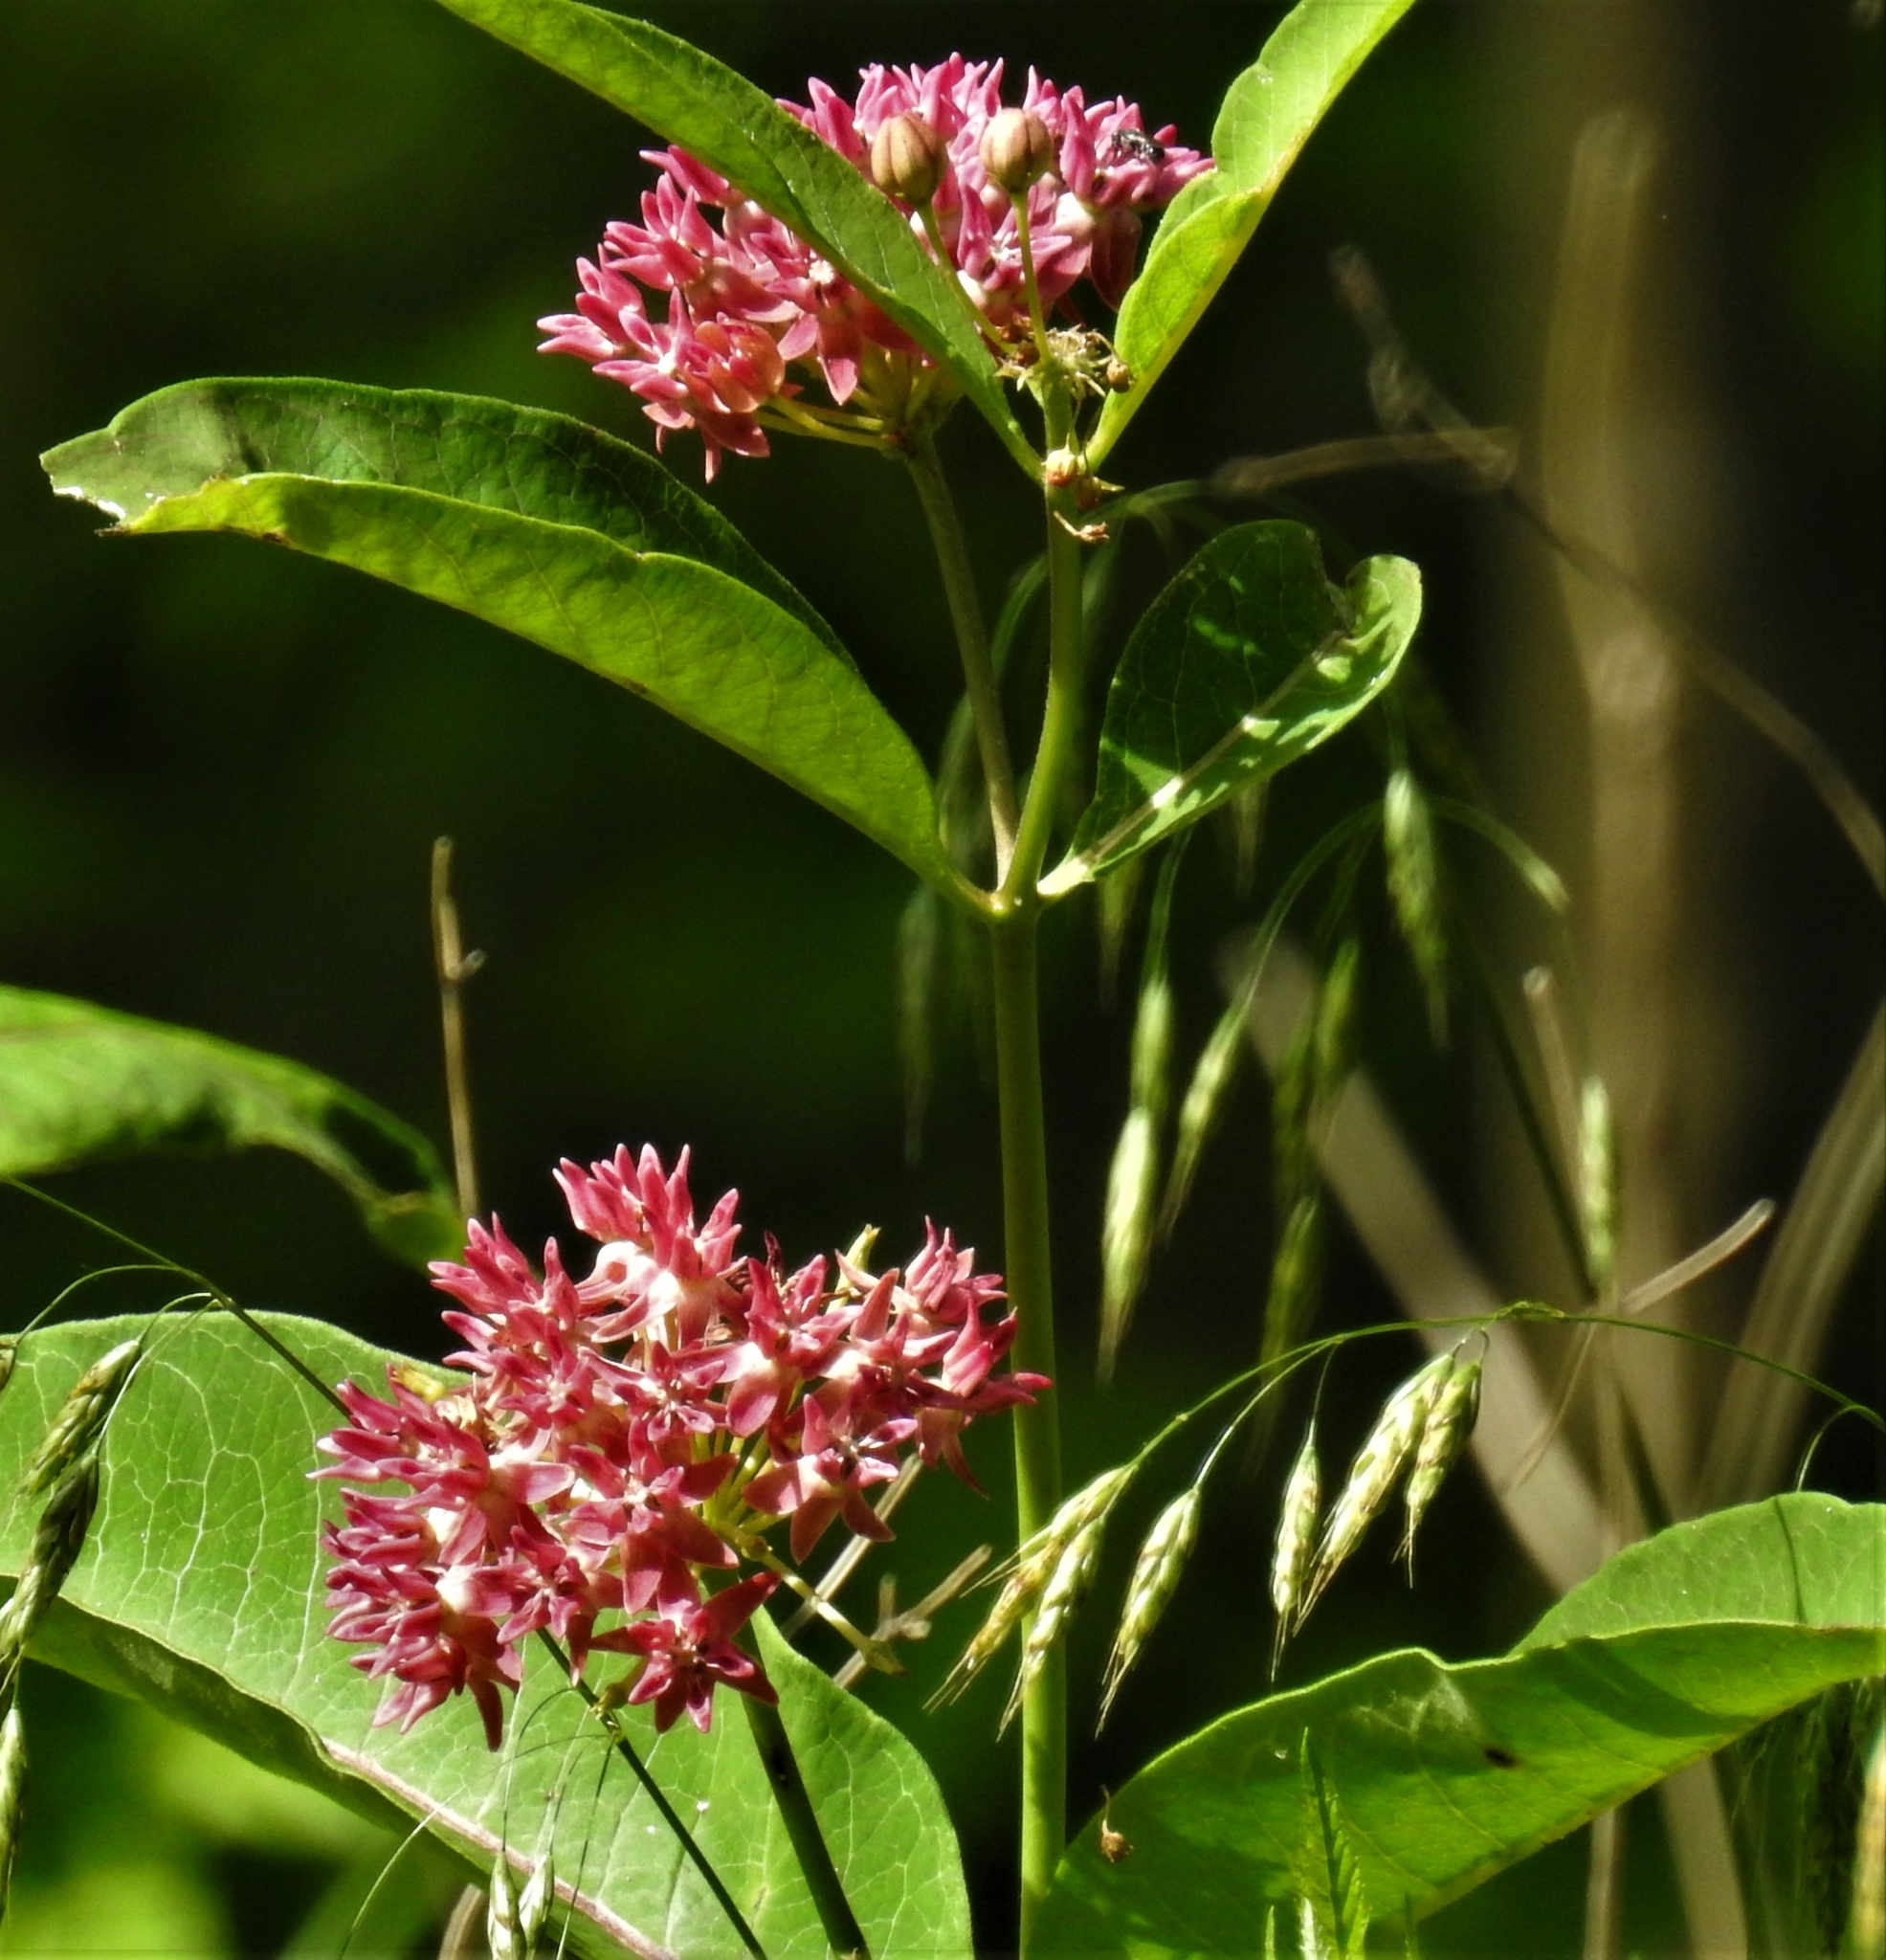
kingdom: Plantae
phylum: Tracheophyta
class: Magnoliopsida
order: Gentianales
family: Apocynaceae
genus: Asclepias
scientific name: Asclepias purpurascens
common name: Purple milkweed
